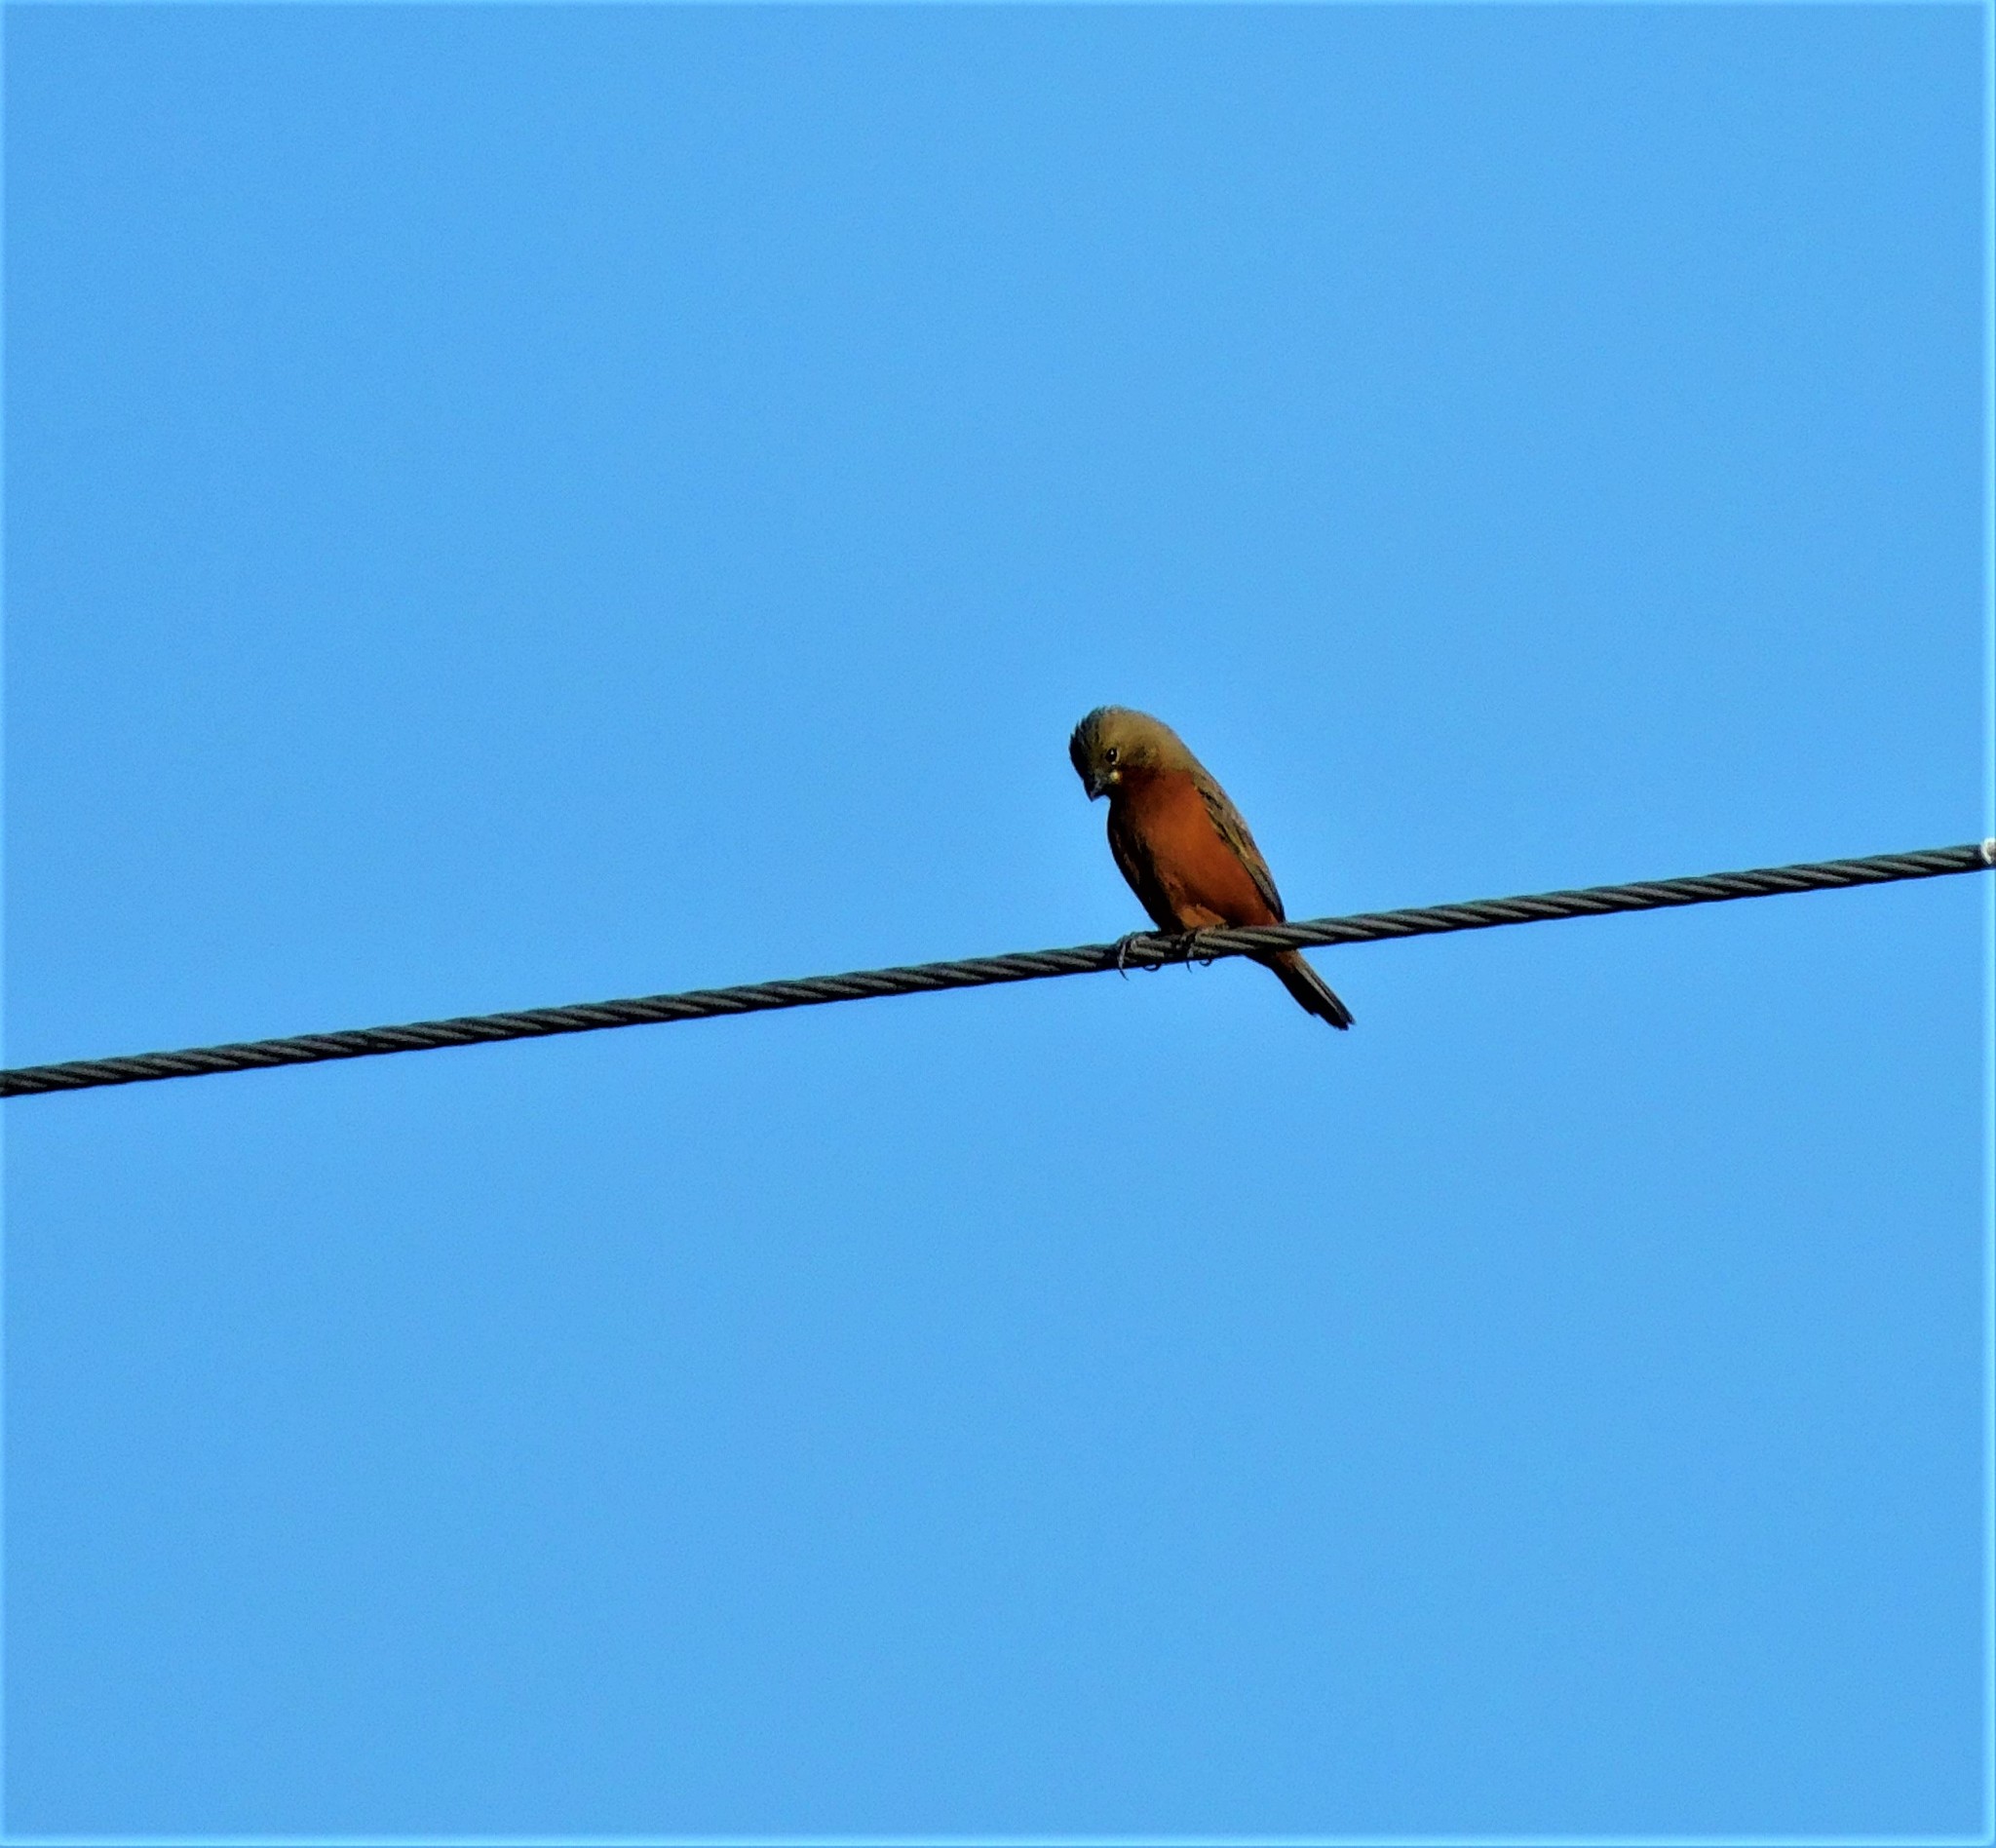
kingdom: Animalia
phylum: Chordata
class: Aves
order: Passeriformes
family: Thraupidae
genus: Sporophila
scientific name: Sporophila minuta
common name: Ruddy-breasted seedeater
